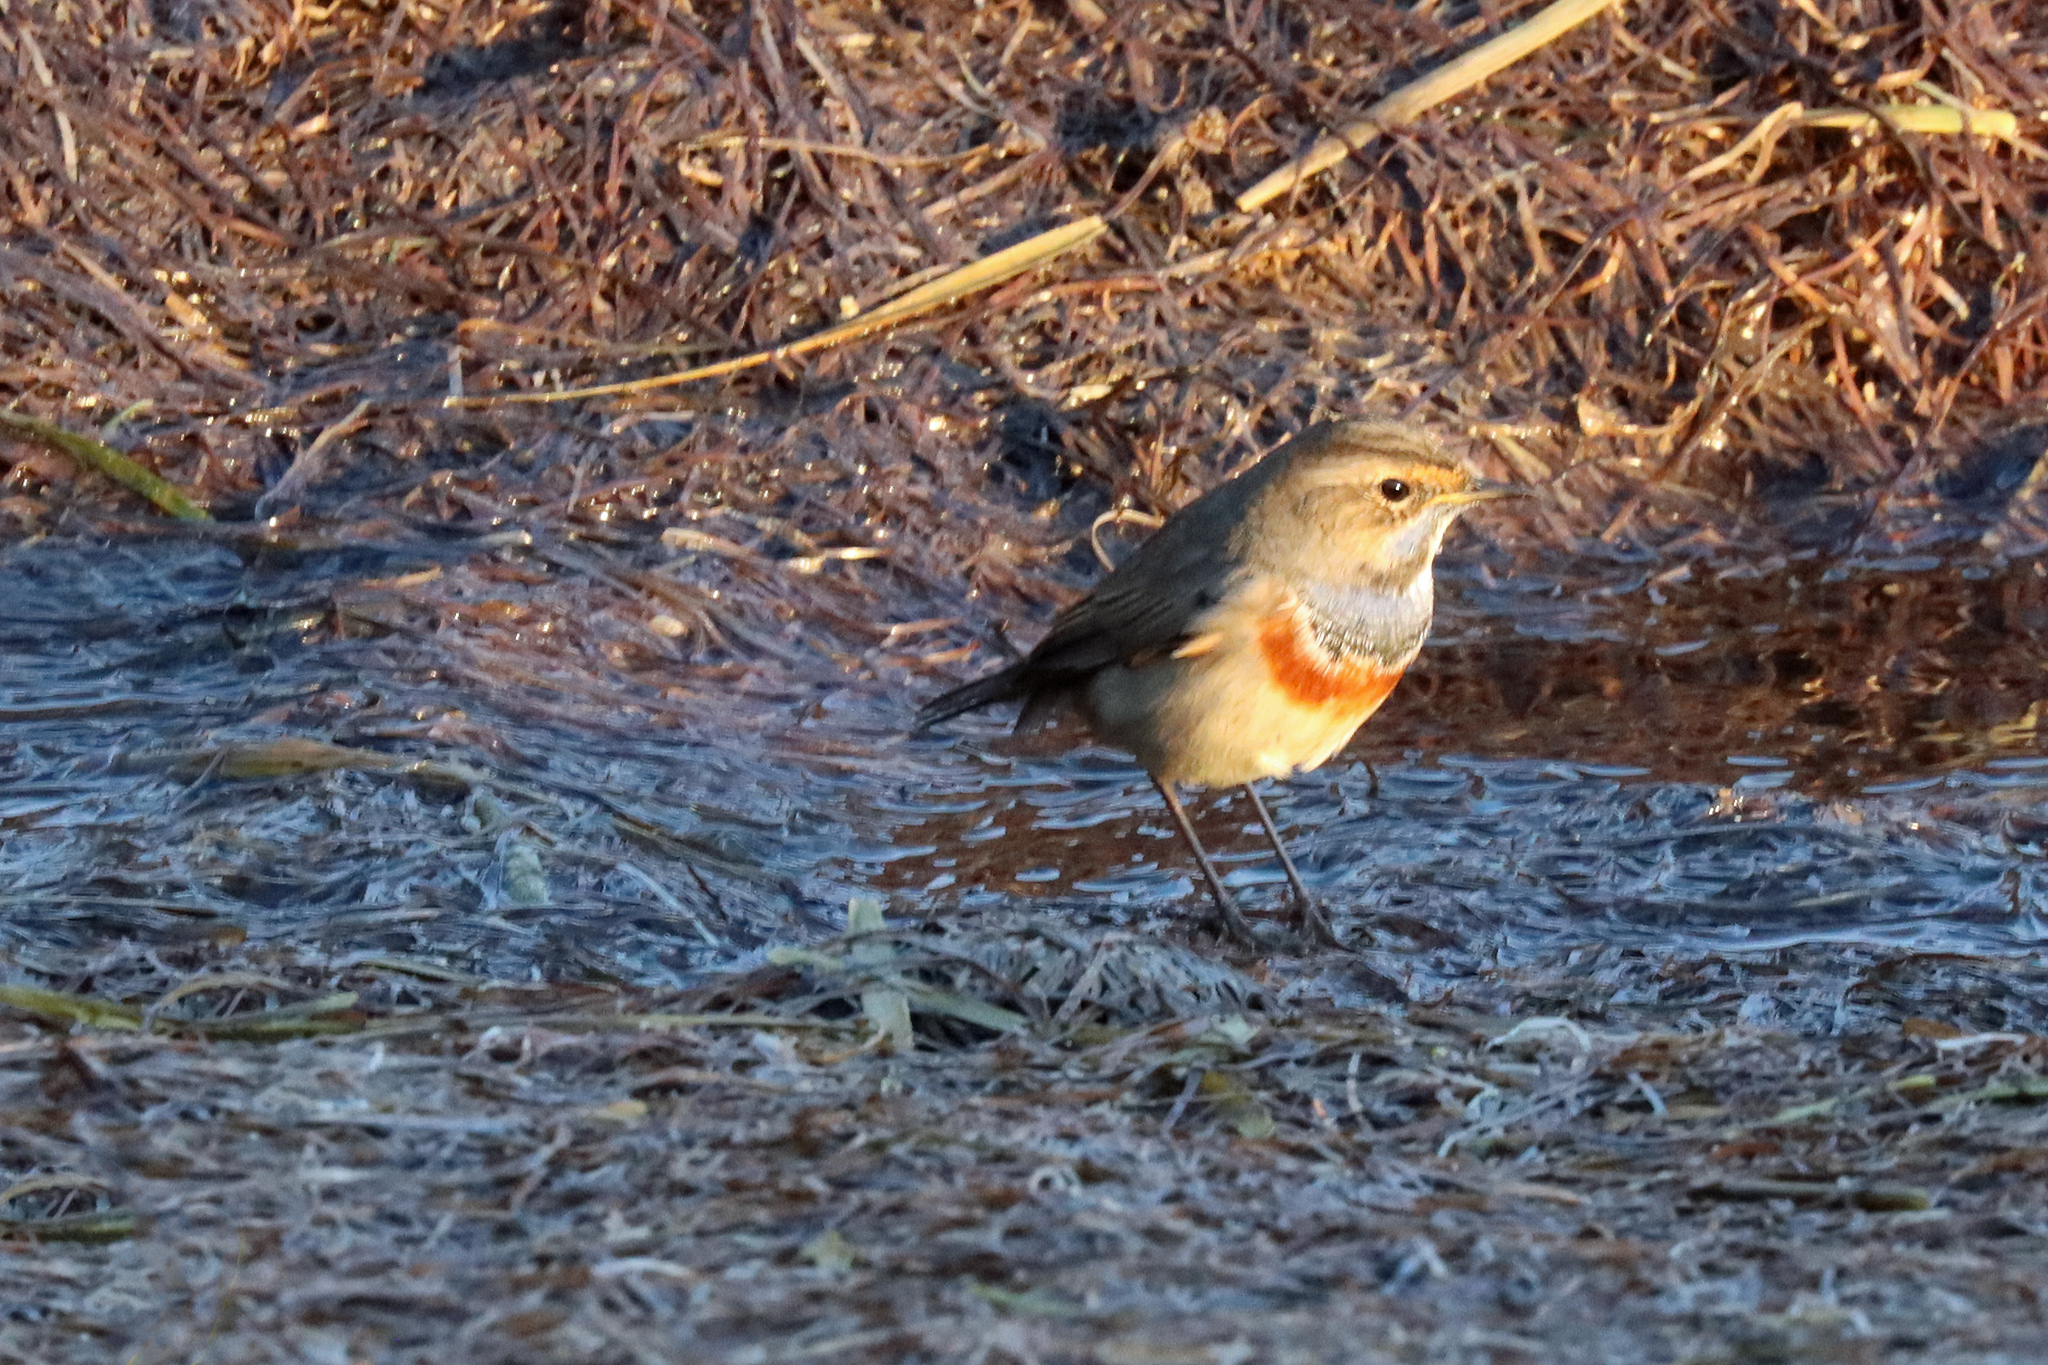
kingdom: Animalia
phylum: Chordata
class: Aves
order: Passeriformes
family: Muscicapidae
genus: Luscinia
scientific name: Luscinia svecica
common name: Bluethroat
